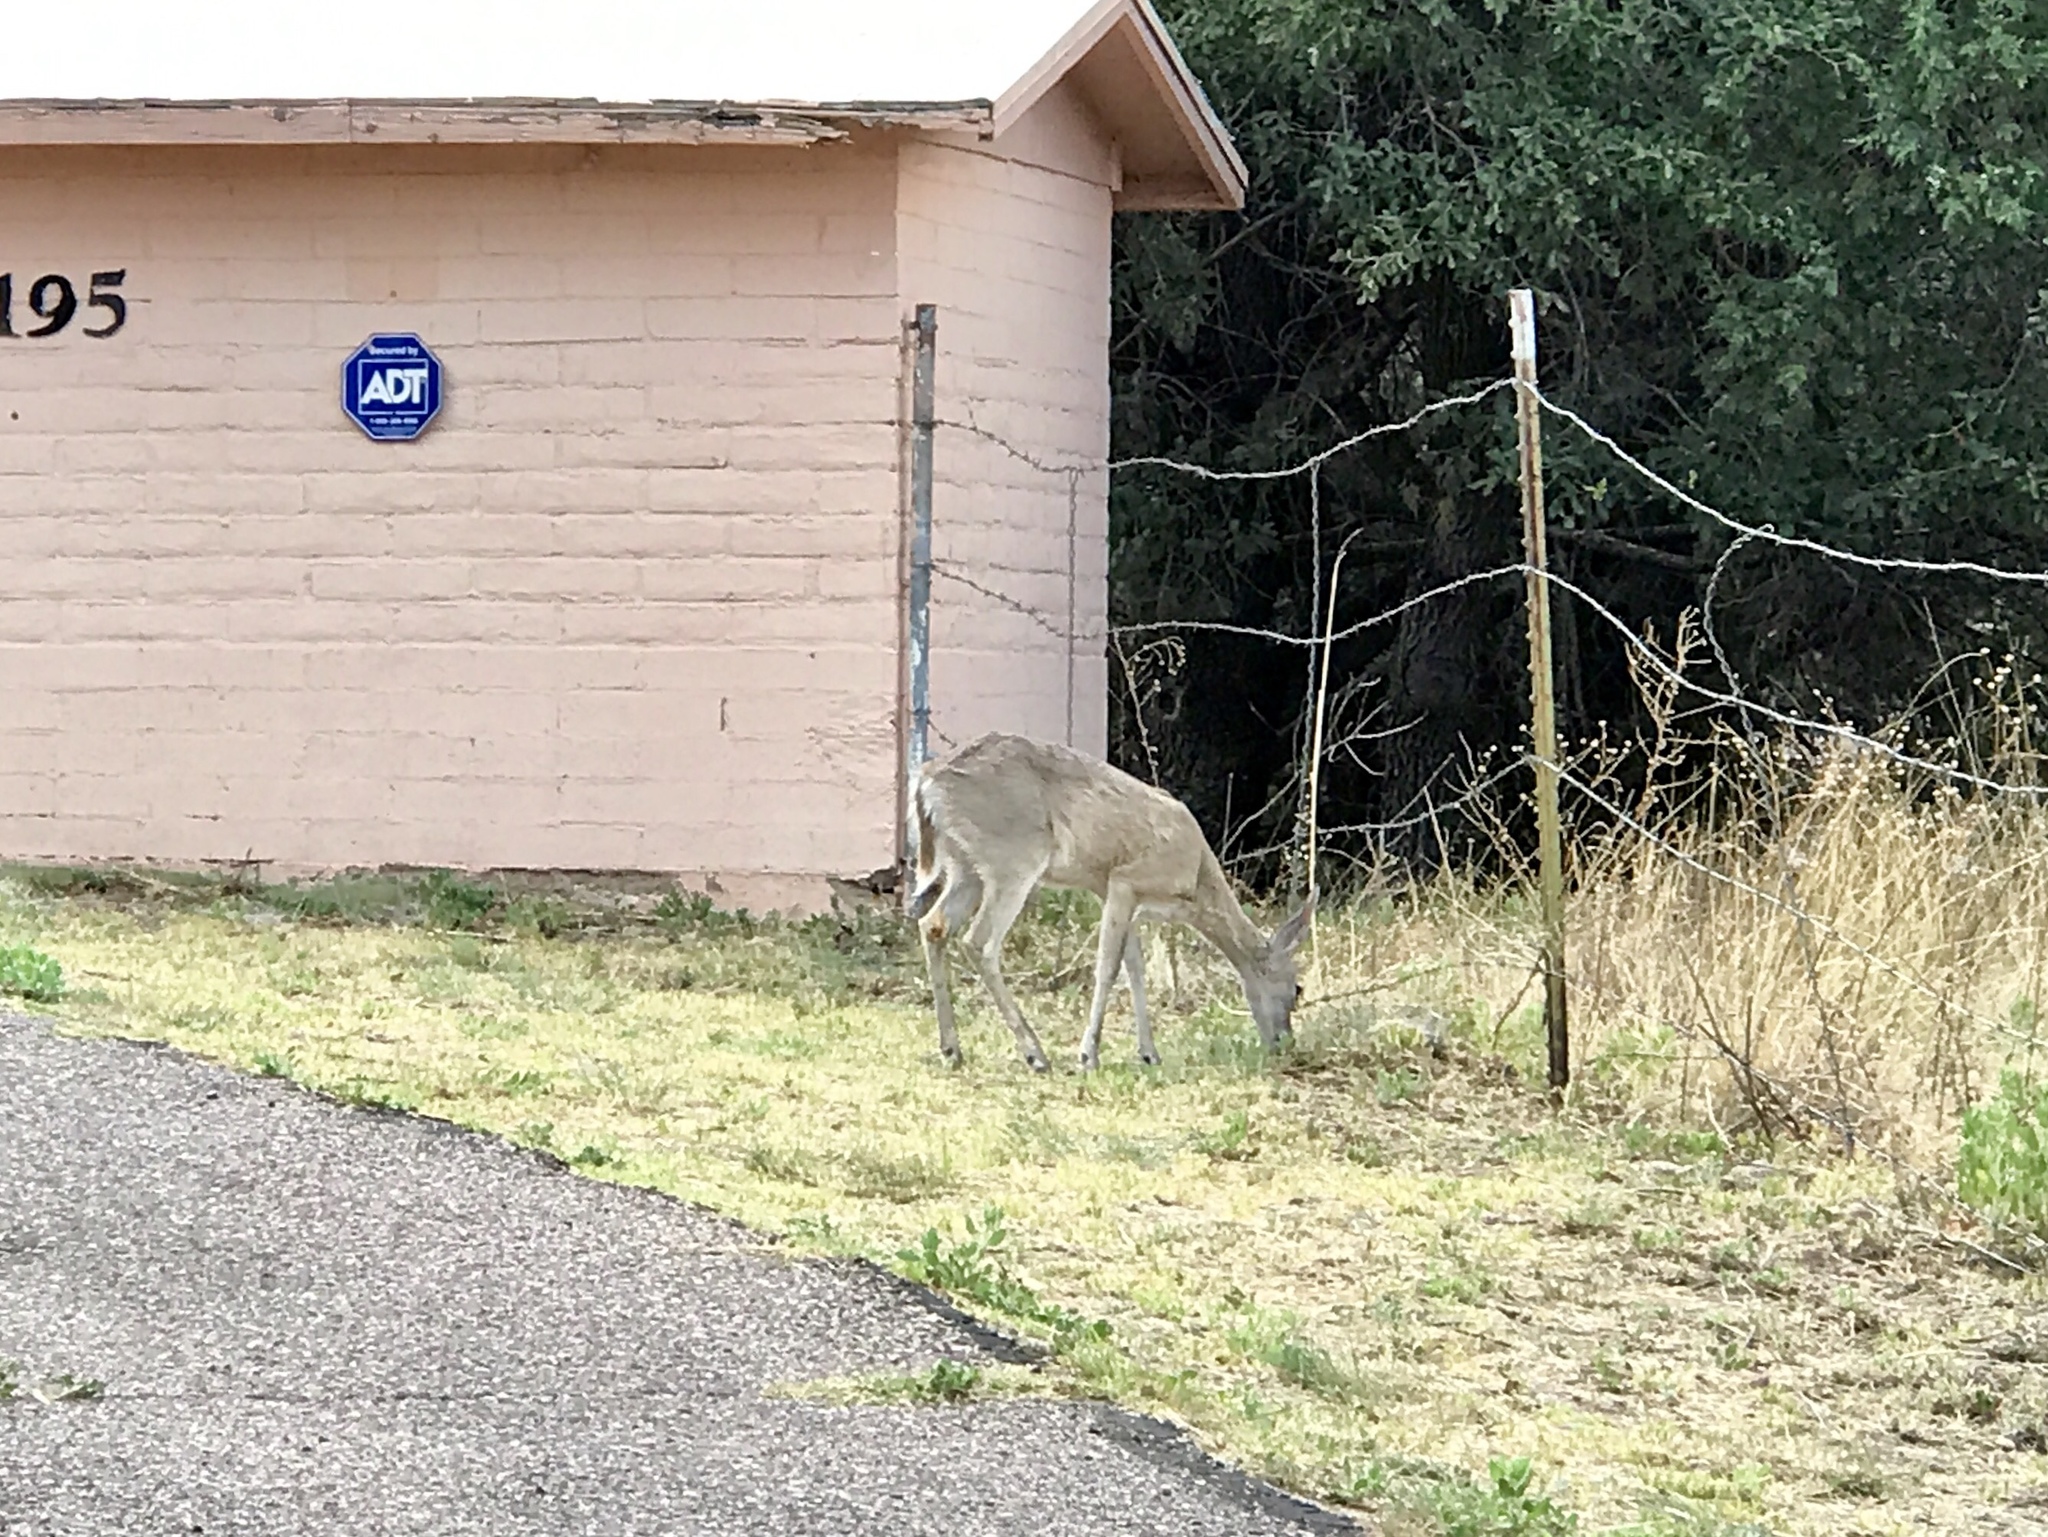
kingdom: Animalia
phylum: Chordata
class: Mammalia
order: Artiodactyla
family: Cervidae
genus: Odocoileus
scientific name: Odocoileus virginianus
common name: White-tailed deer
